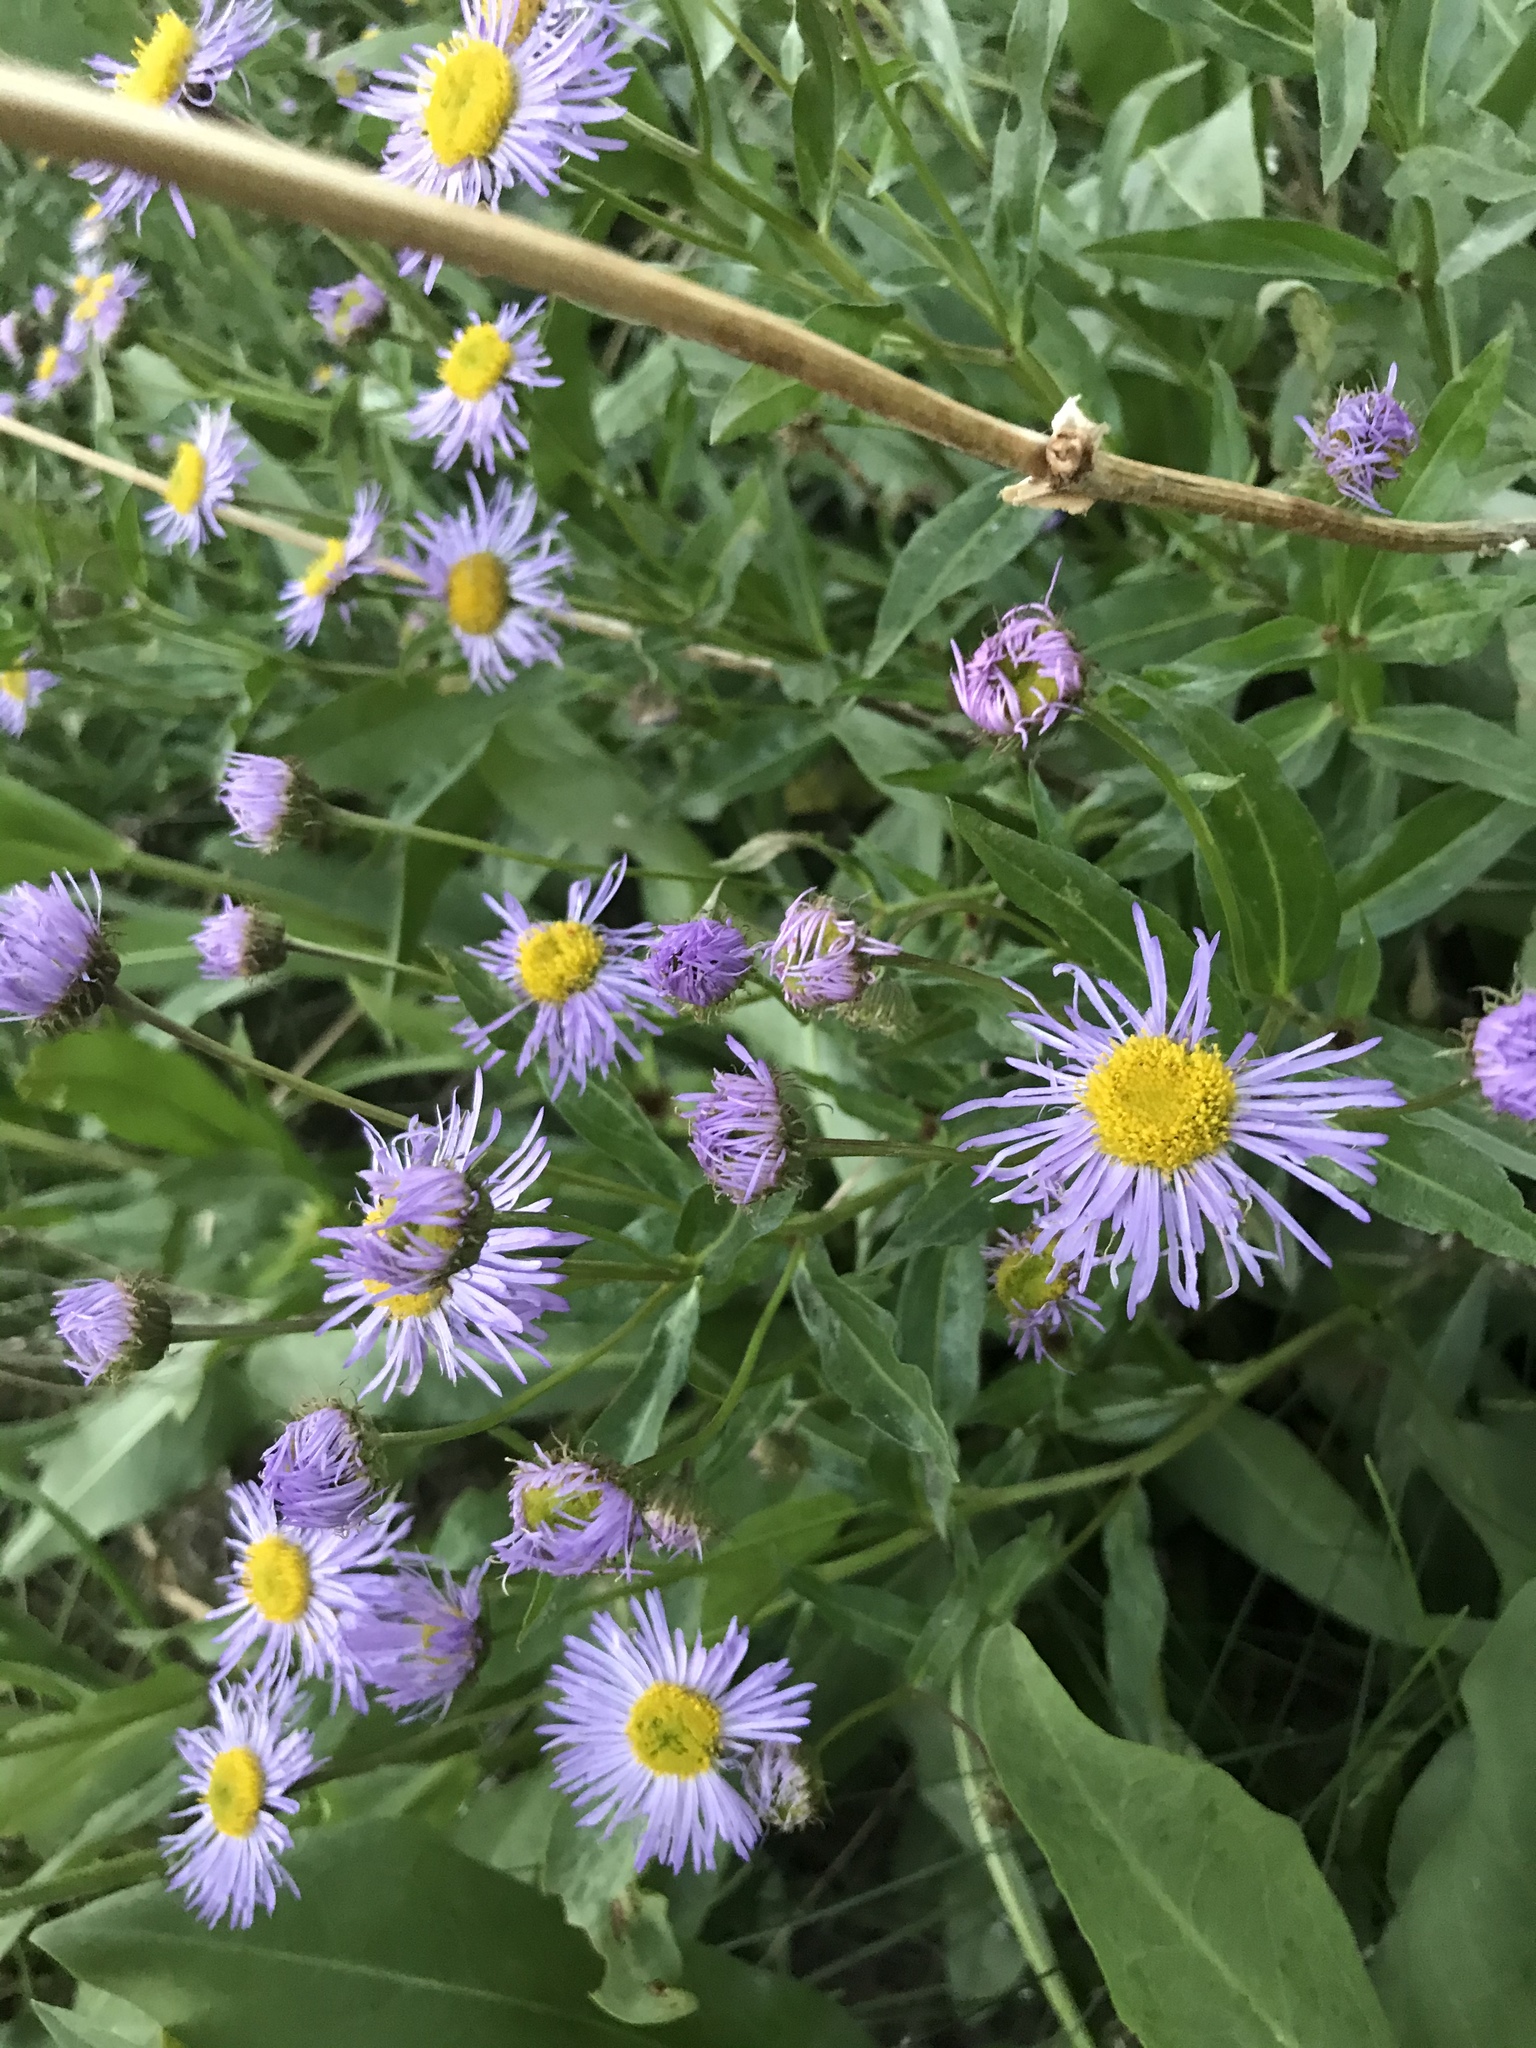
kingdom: Plantae
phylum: Tracheophyta
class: Magnoliopsida
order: Asterales
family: Asteraceae
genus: Erigeron
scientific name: Erigeron speciosus
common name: Aspen fleabane
